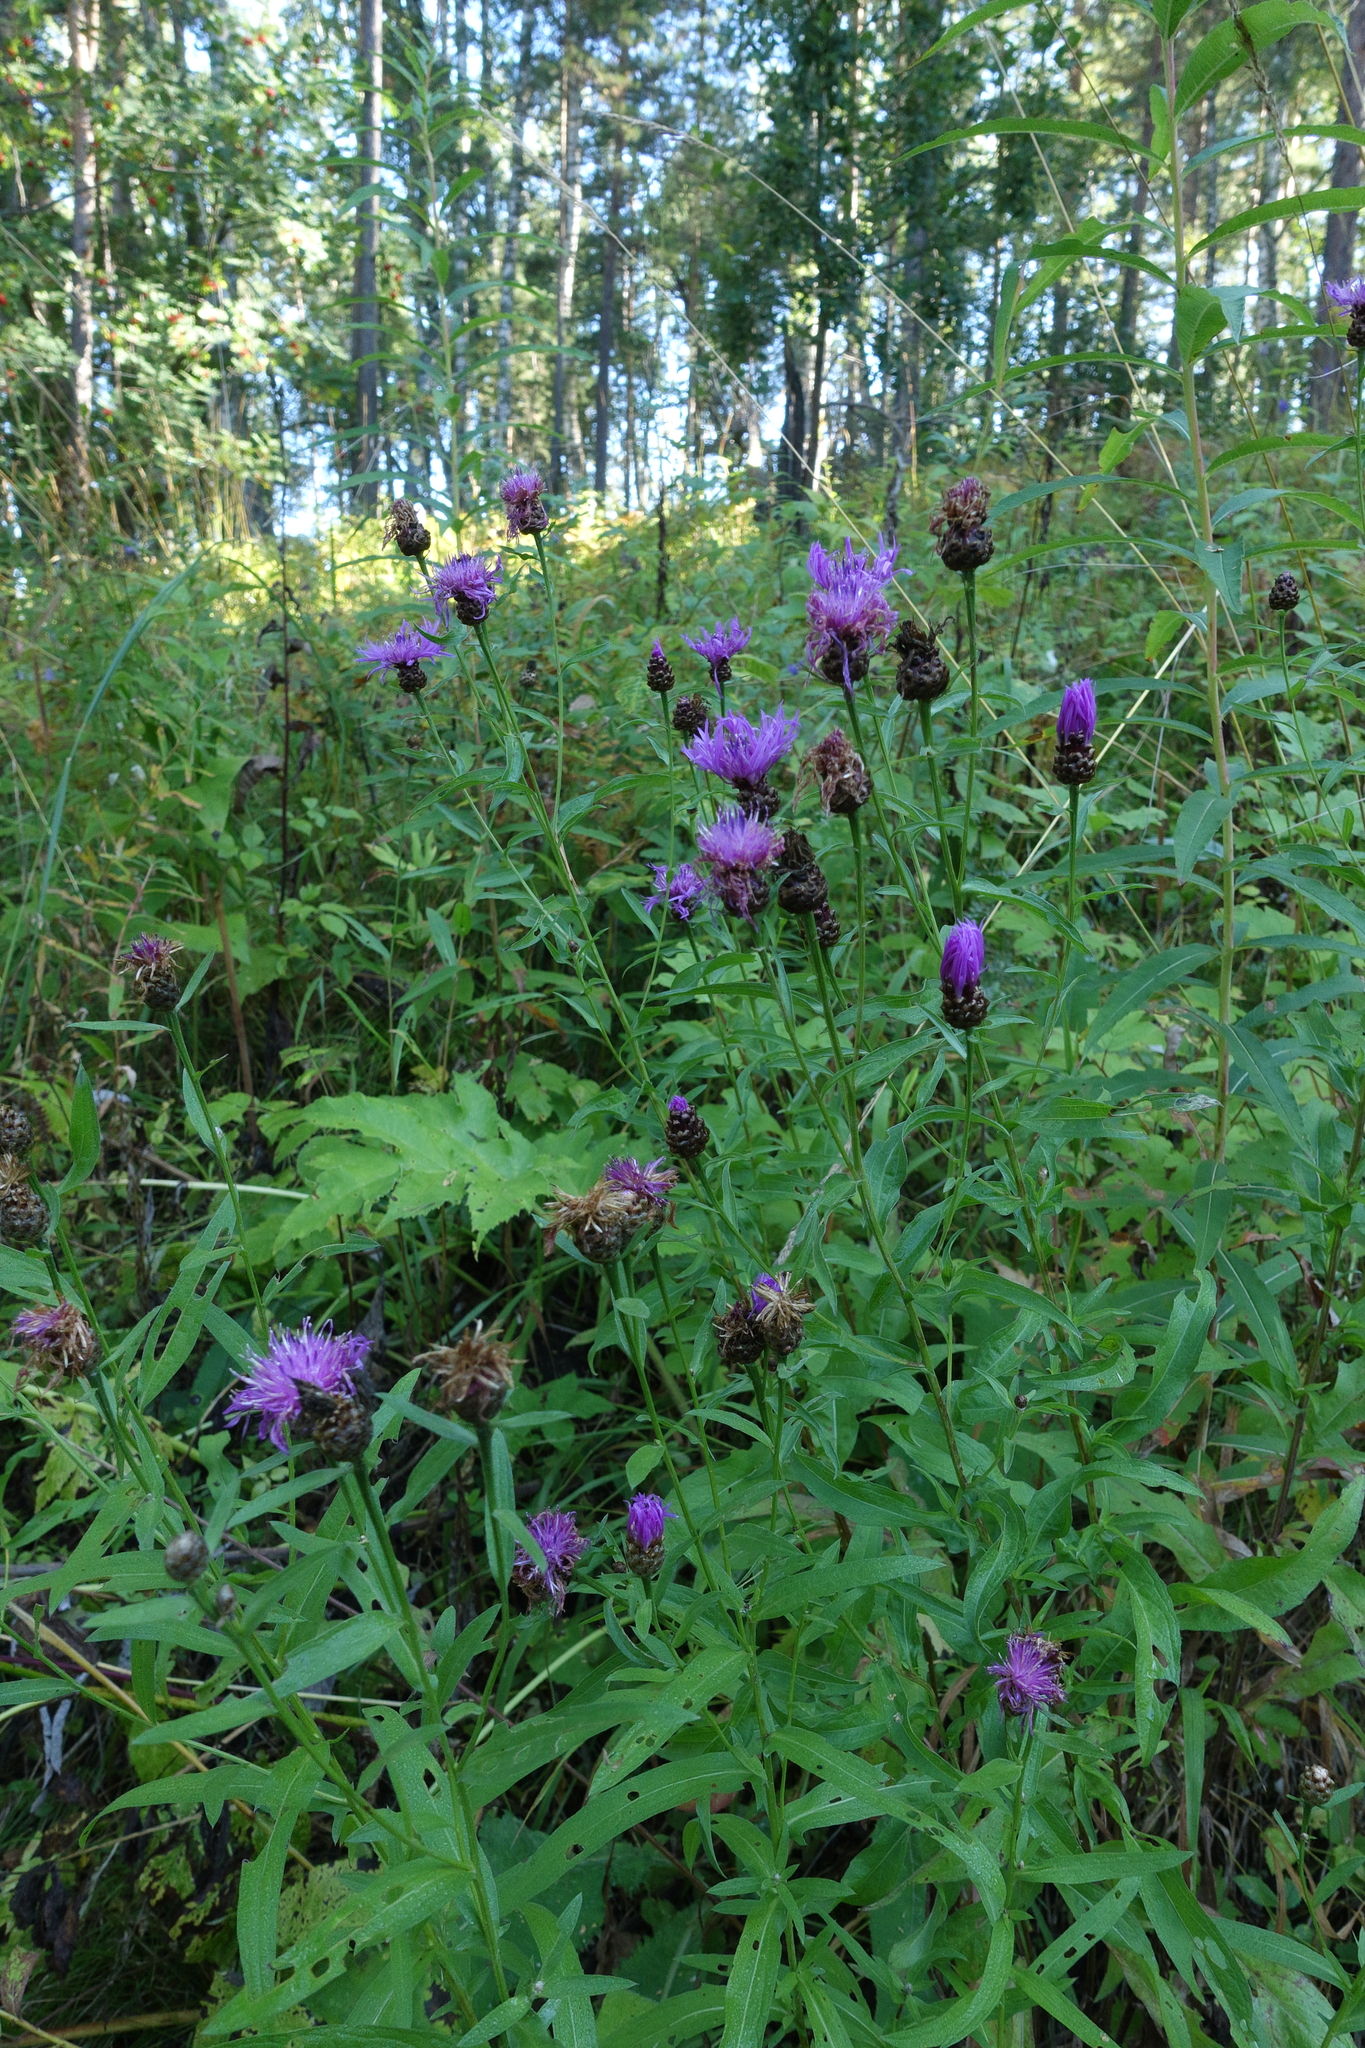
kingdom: Plantae
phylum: Tracheophyta
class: Magnoliopsida
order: Asterales
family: Asteraceae
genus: Centaurea
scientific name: Centaurea jacea
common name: Brown knapweed
